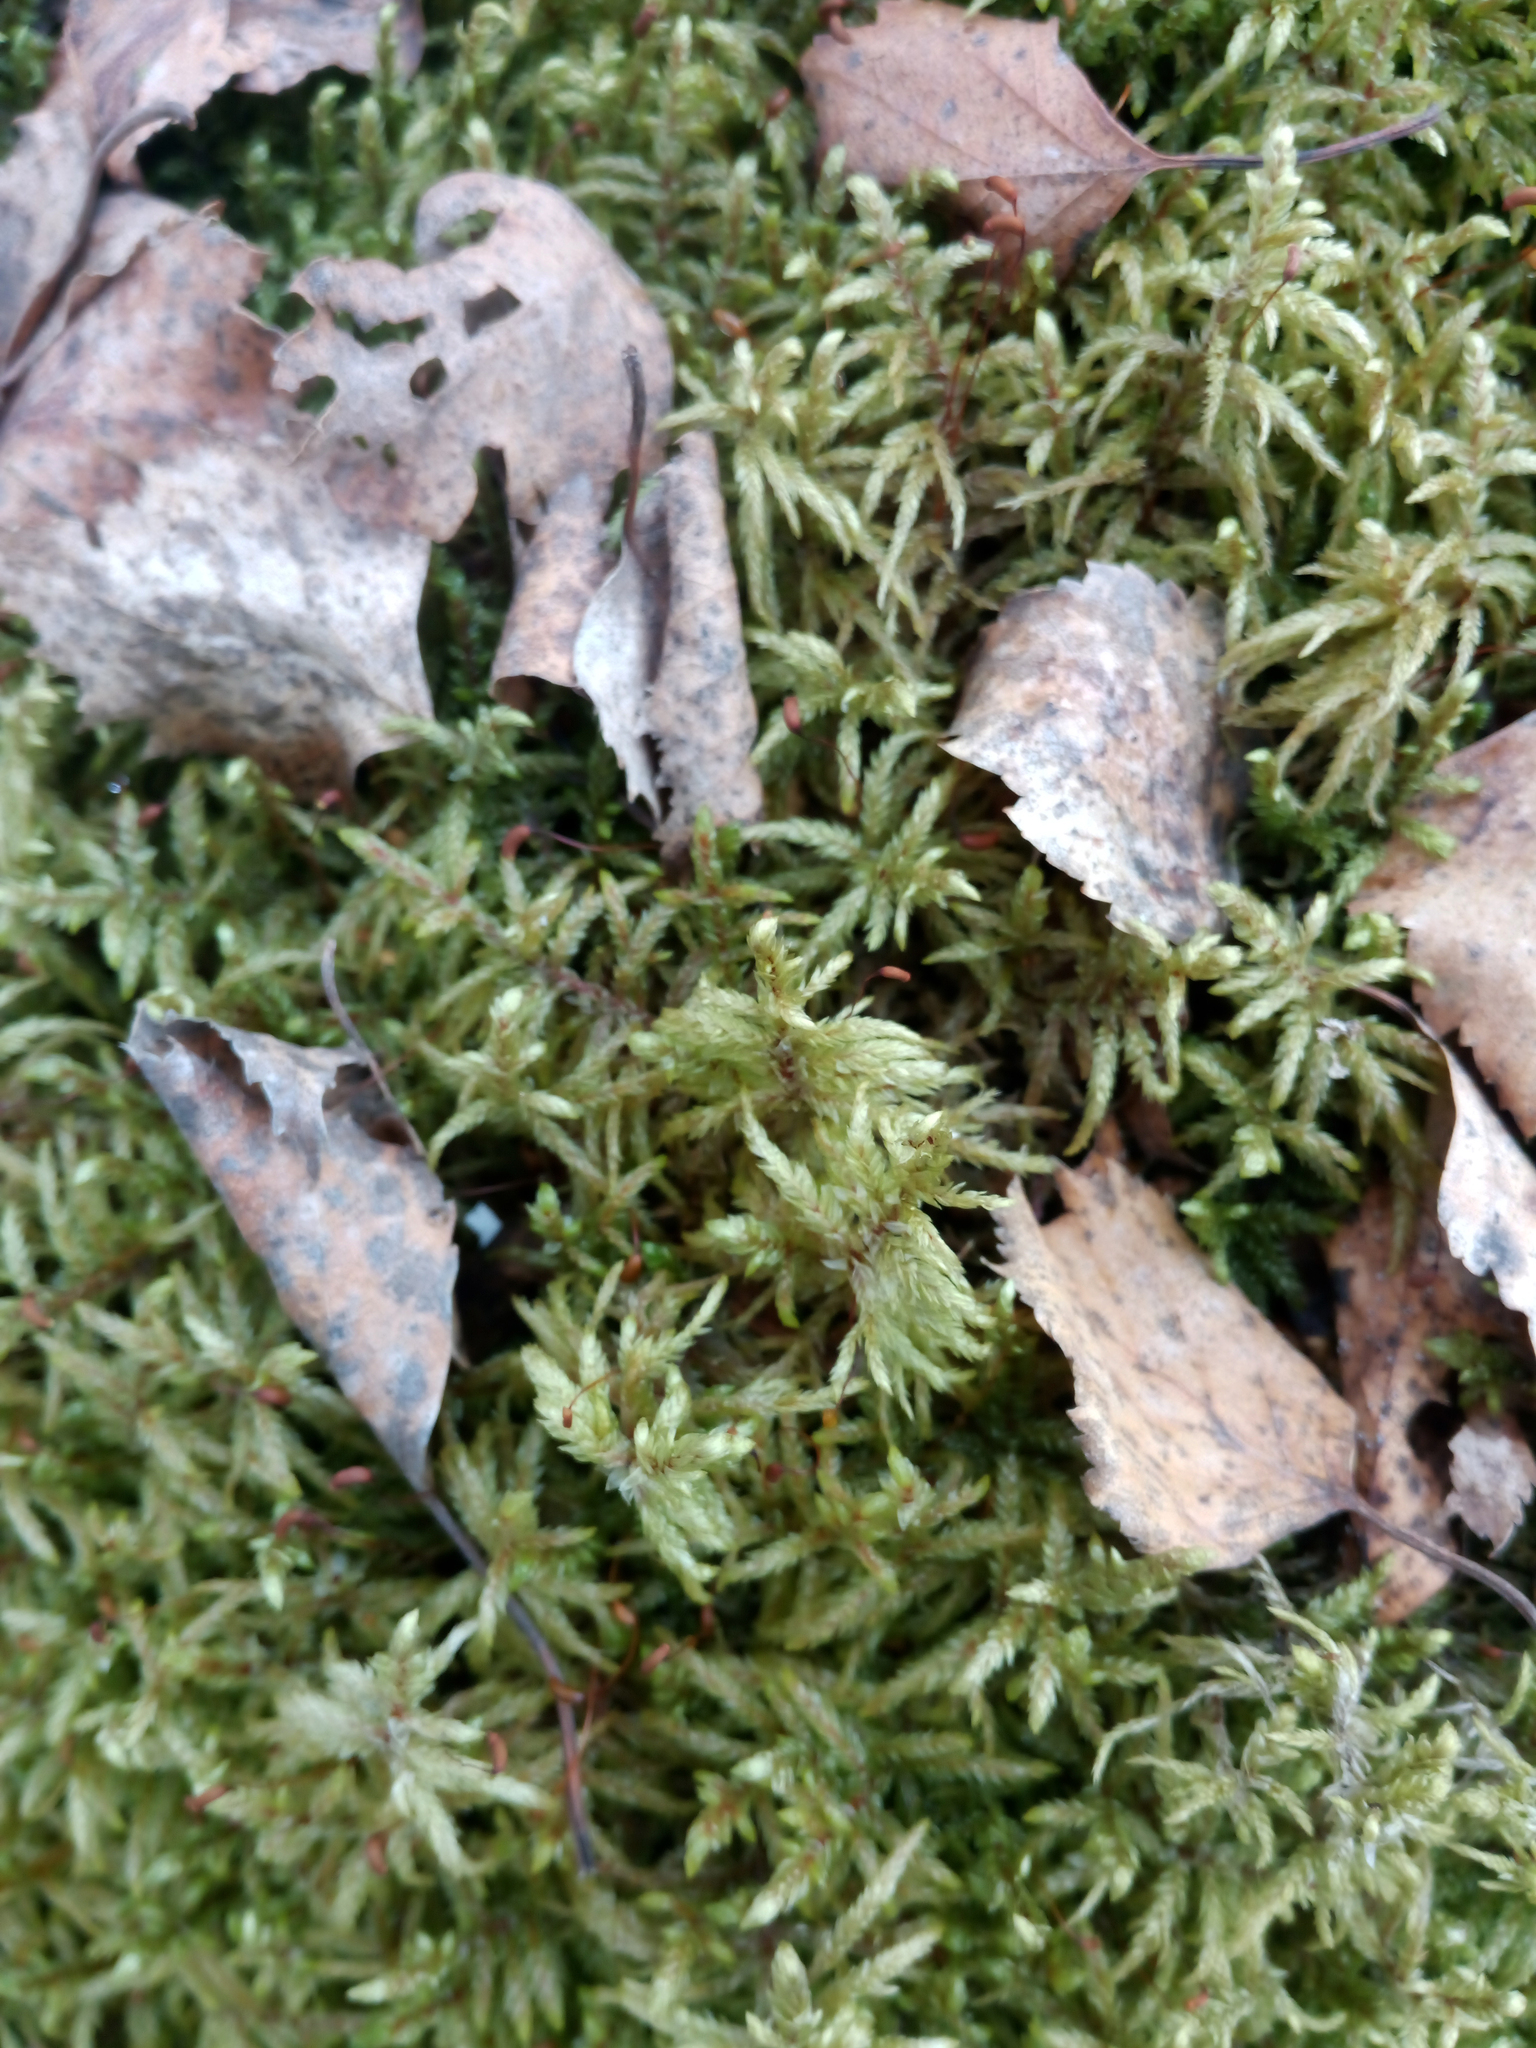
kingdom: Plantae
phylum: Bryophyta
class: Bryopsida
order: Hypnales
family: Hylocomiaceae
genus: Pleurozium
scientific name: Pleurozium schreberi
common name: Red-stemmed feather moss
